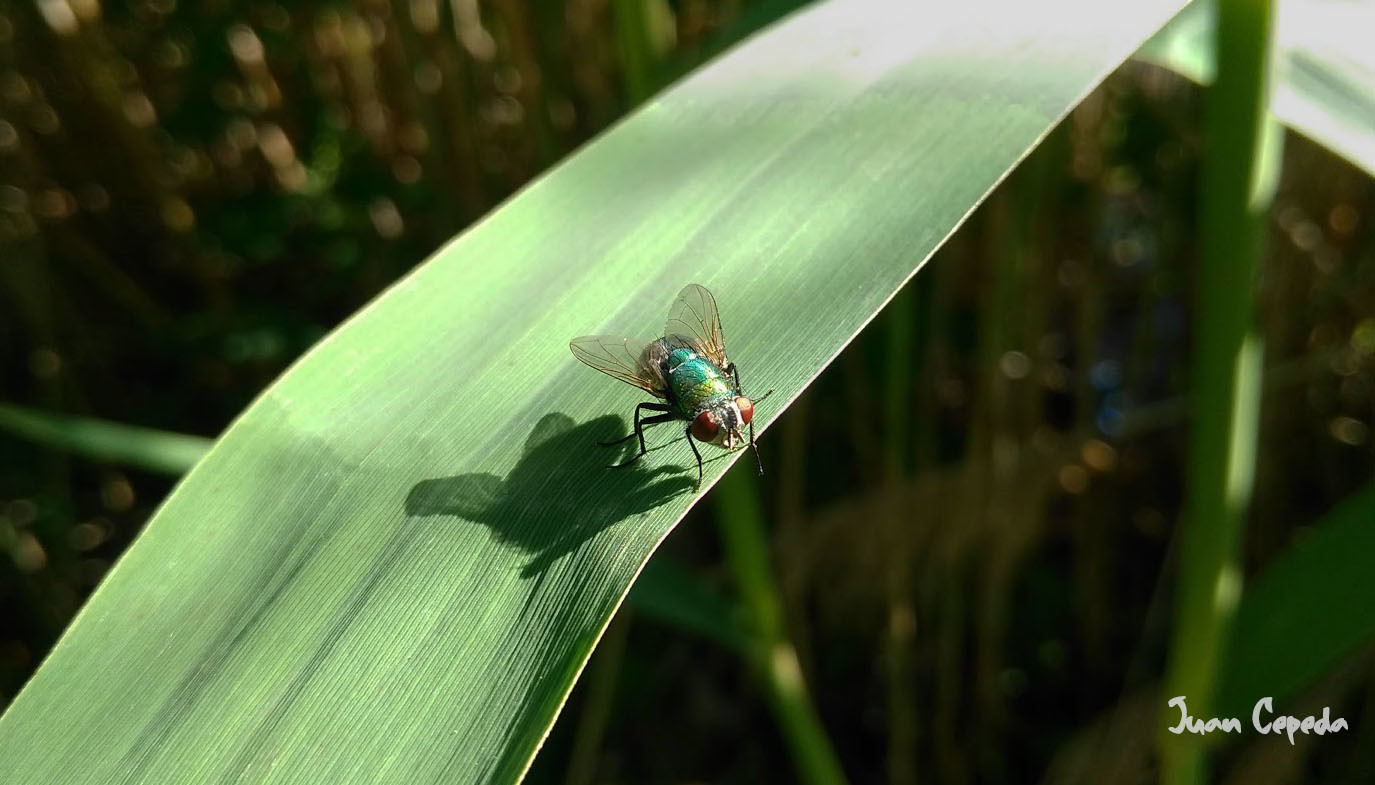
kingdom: Animalia
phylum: Arthropoda
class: Insecta
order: Diptera
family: Calliphoridae
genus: Lucilia
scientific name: Lucilia sericata
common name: Blow fly
